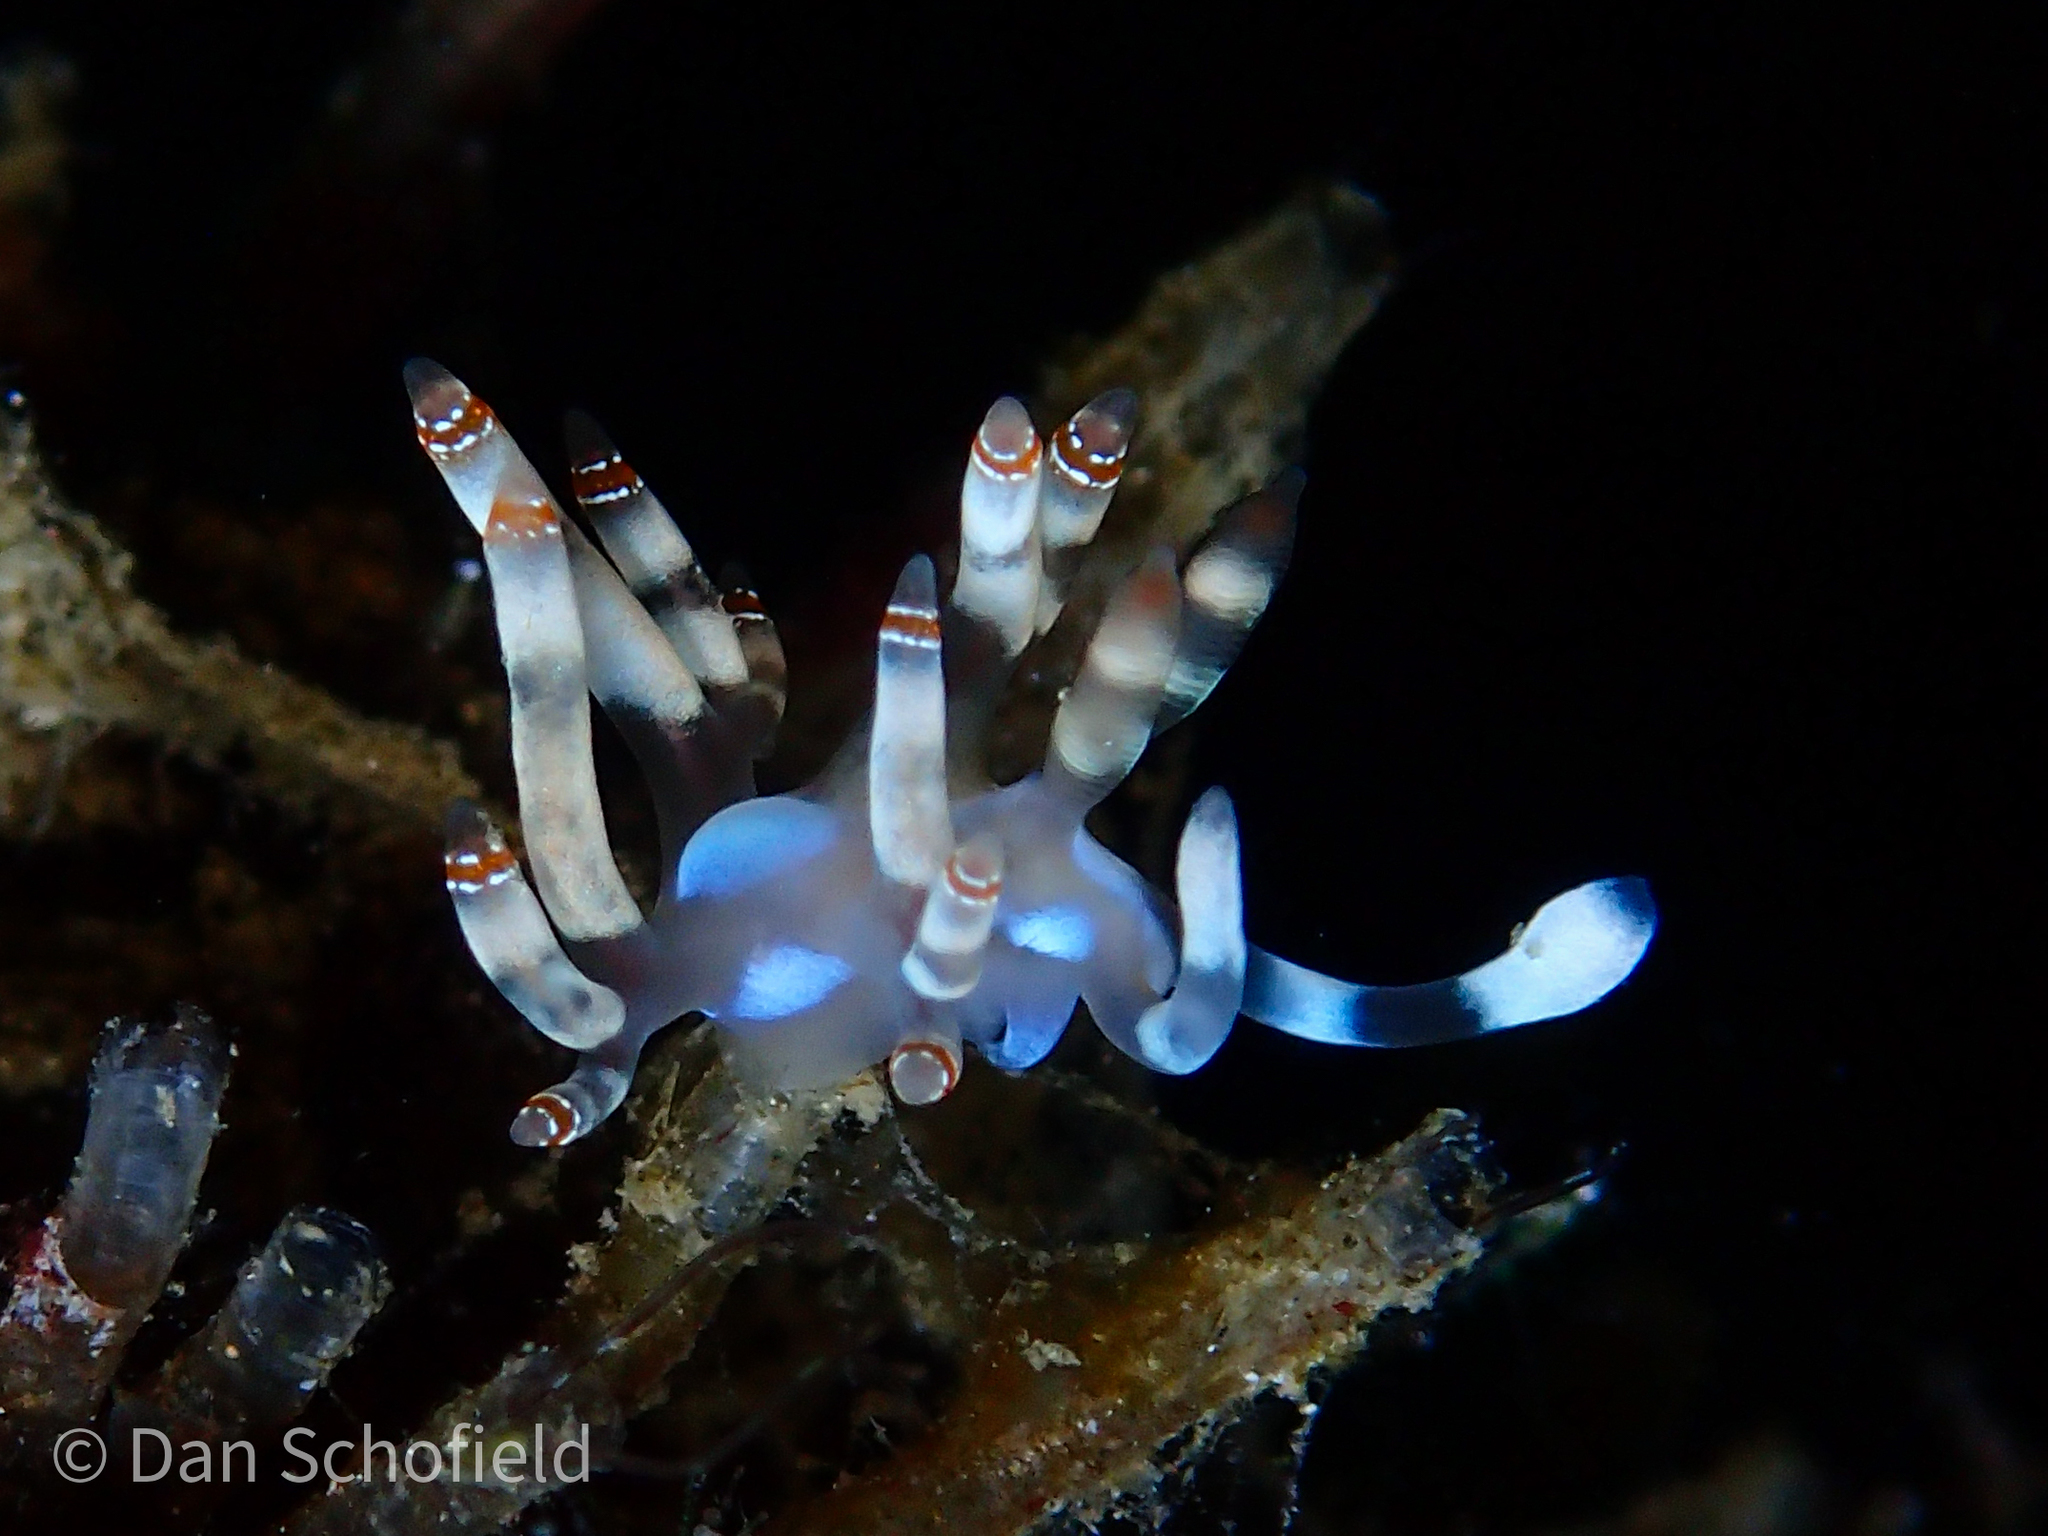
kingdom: Animalia
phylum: Mollusca
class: Gastropoda
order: Nudibranchia
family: Samlidae
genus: Samla
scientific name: Samla bilas
